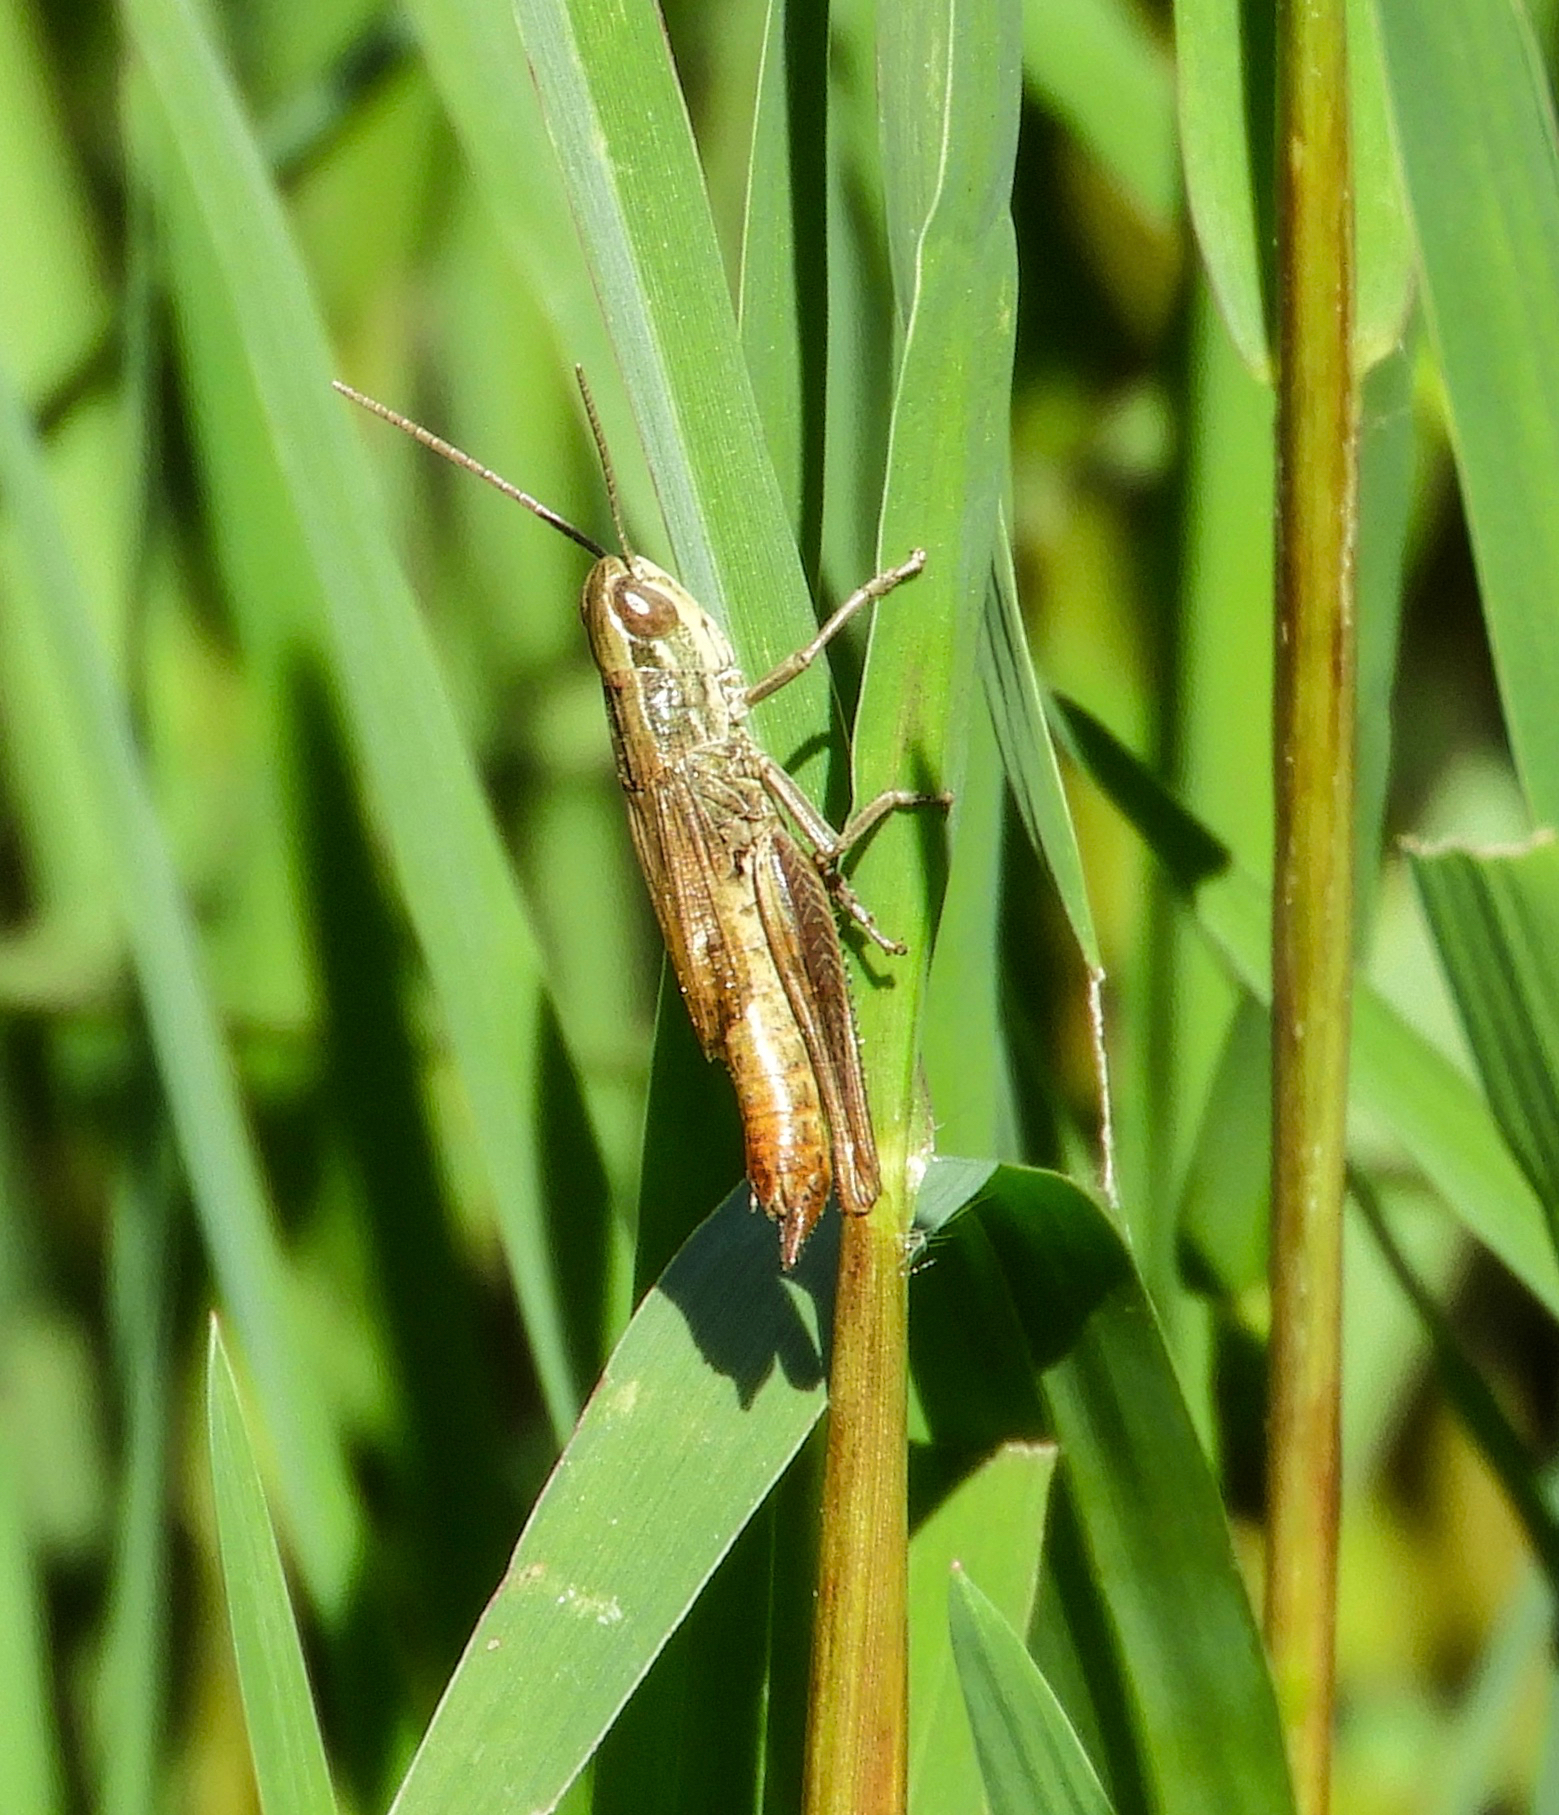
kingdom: Animalia
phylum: Arthropoda
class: Insecta
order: Orthoptera
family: Acrididae
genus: Euchorthippus
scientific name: Euchorthippus declivus
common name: Common straw grasshopper
